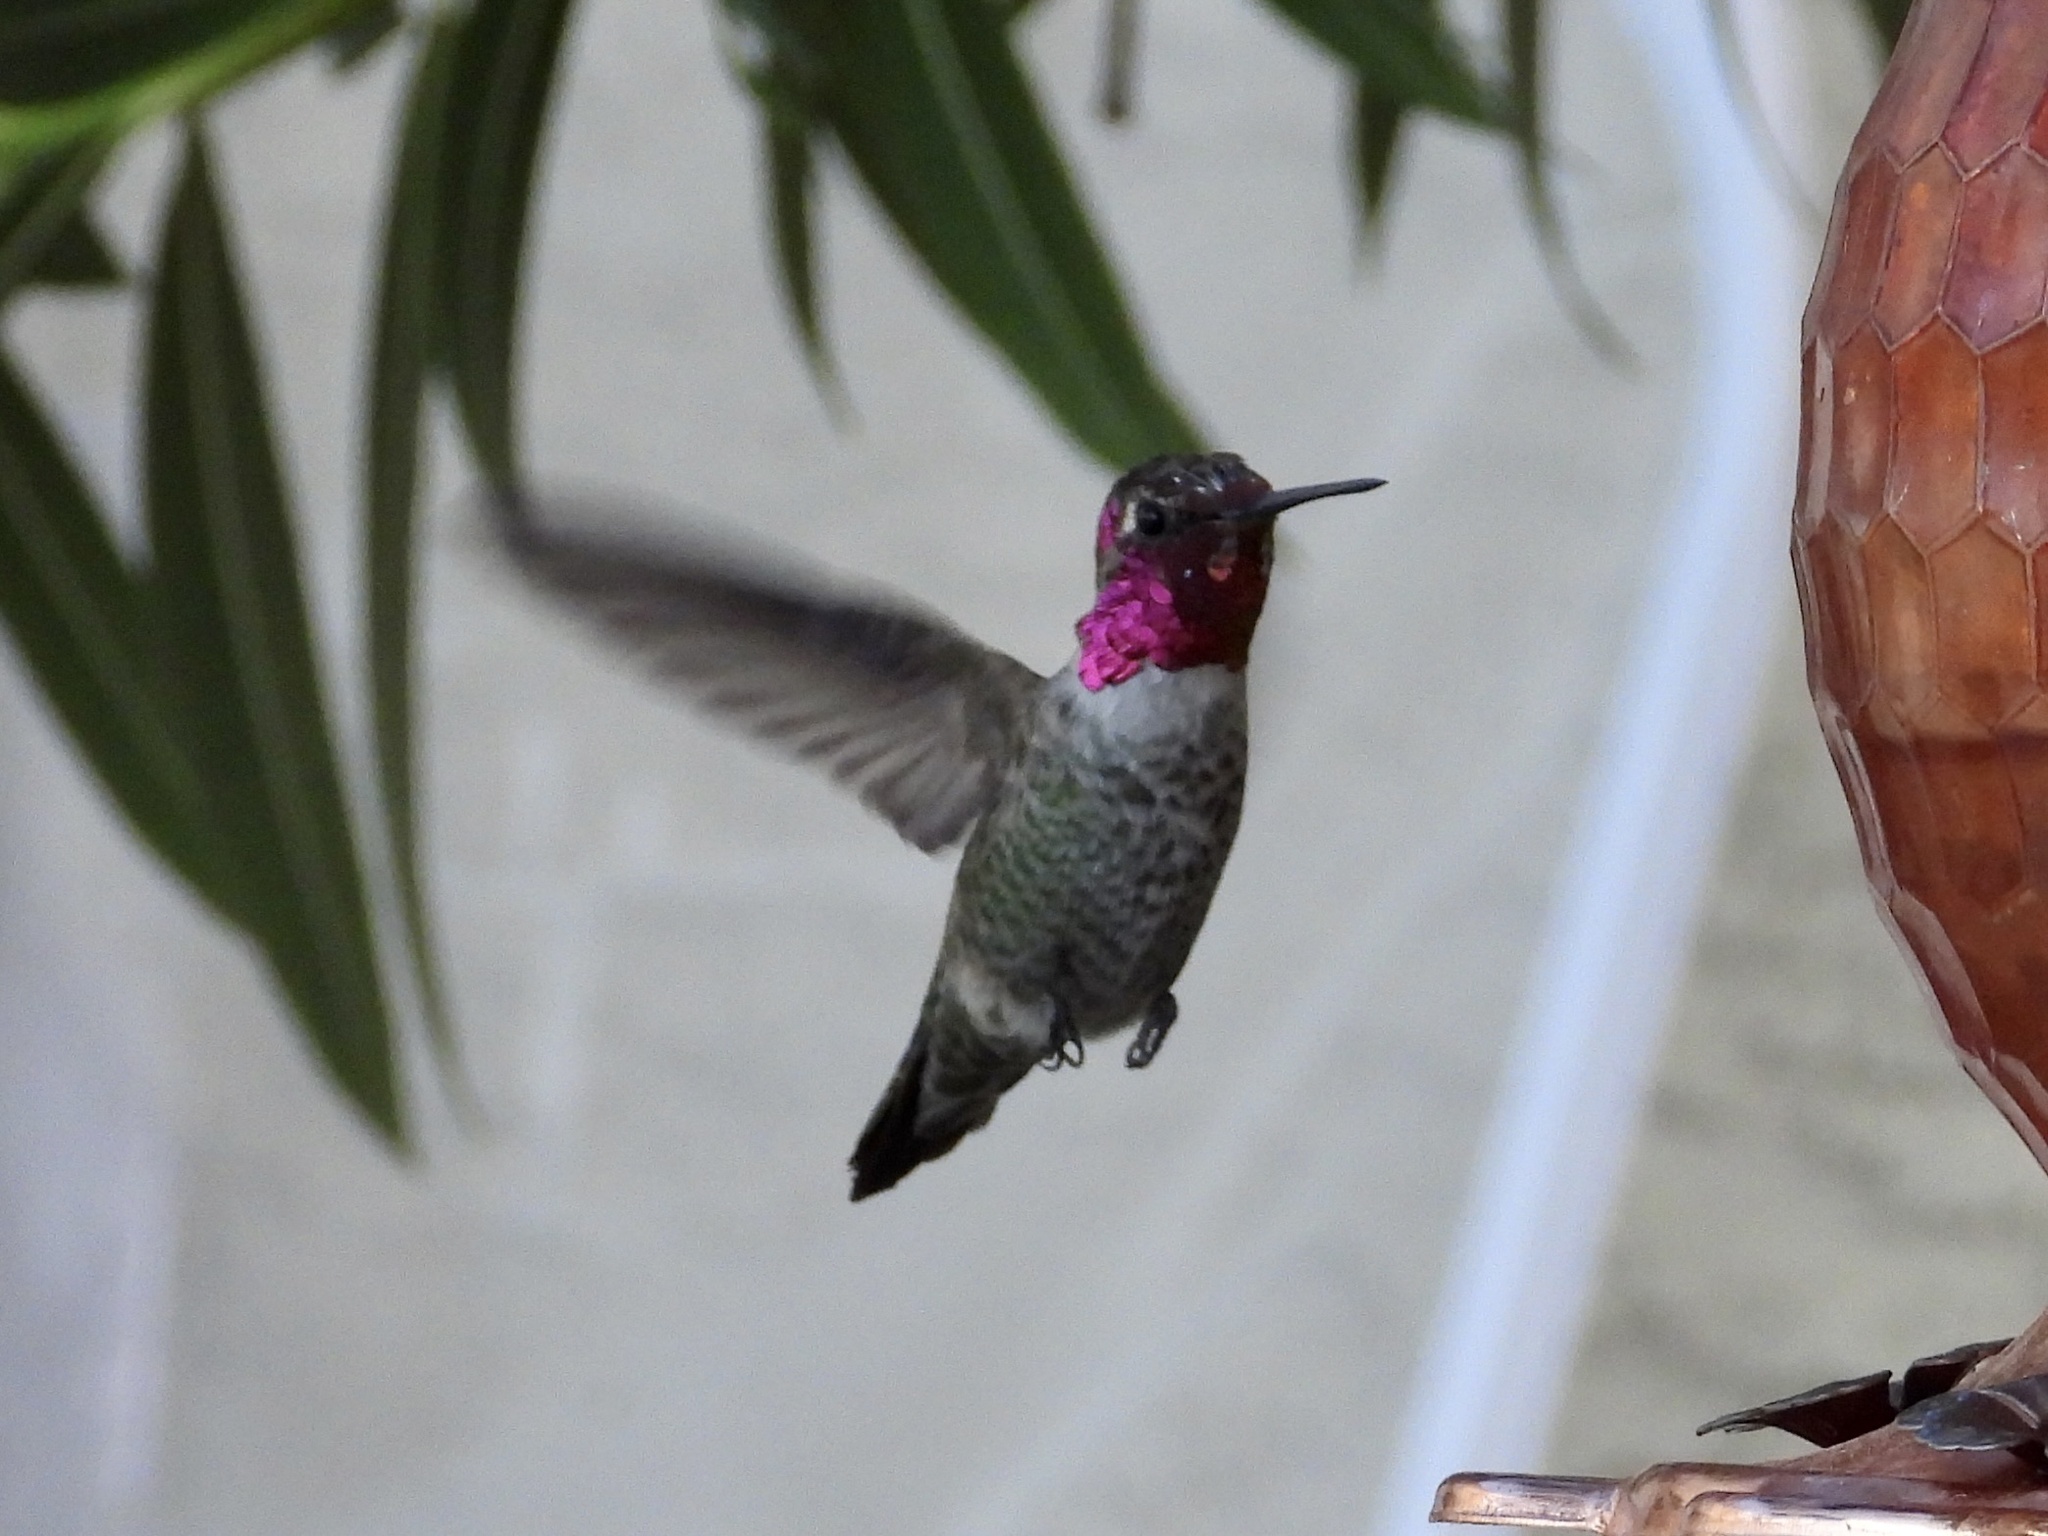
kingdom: Animalia
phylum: Chordata
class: Aves
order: Apodiformes
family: Trochilidae
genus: Calypte
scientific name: Calypte anna
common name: Anna's hummingbird
